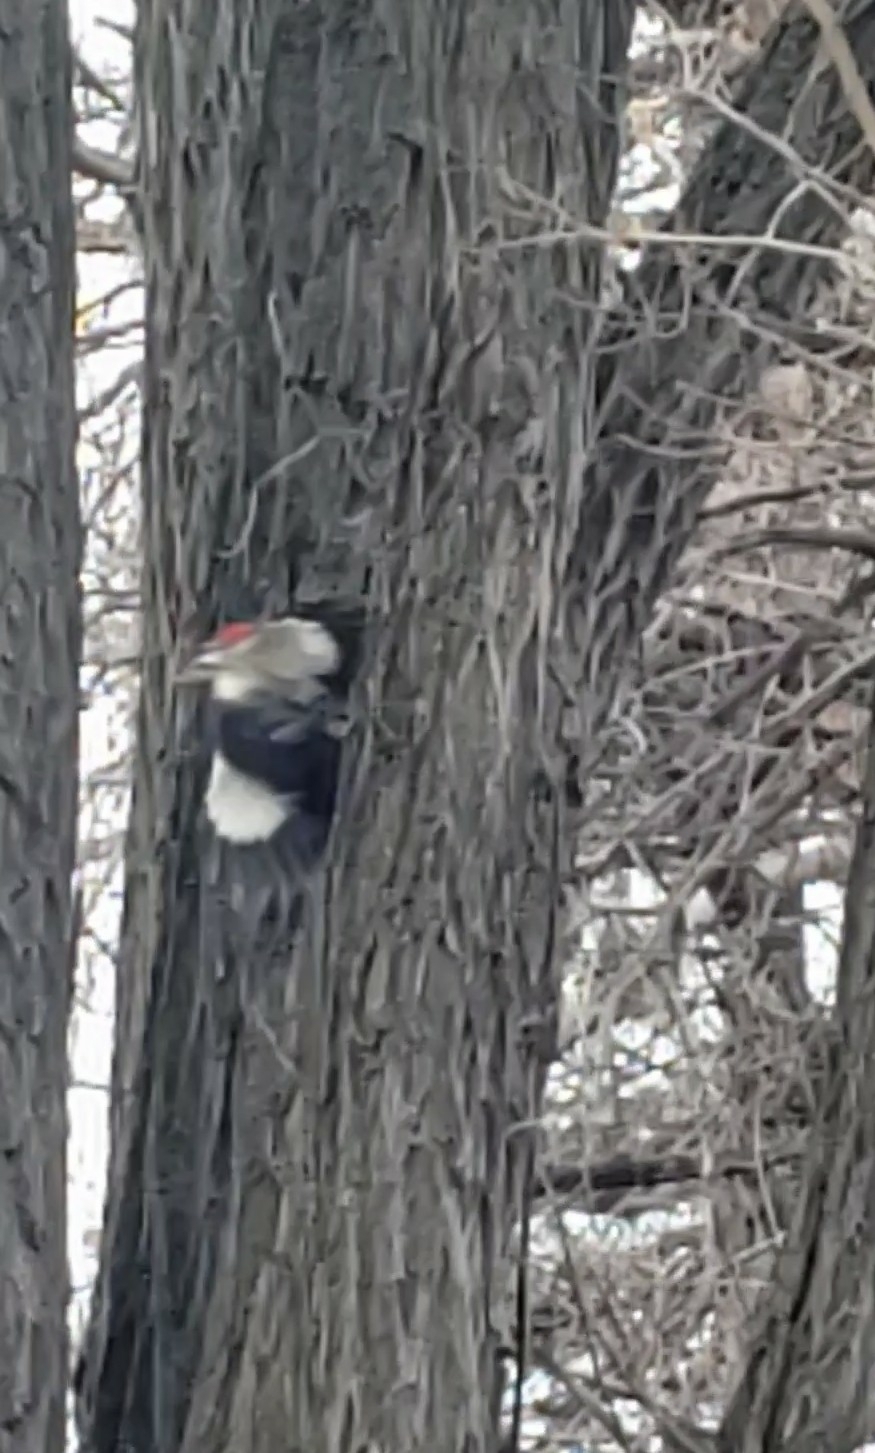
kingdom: Animalia
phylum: Chordata
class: Aves
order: Piciformes
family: Picidae
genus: Dryocopus
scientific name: Dryocopus pileatus
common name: Pileated woodpecker
